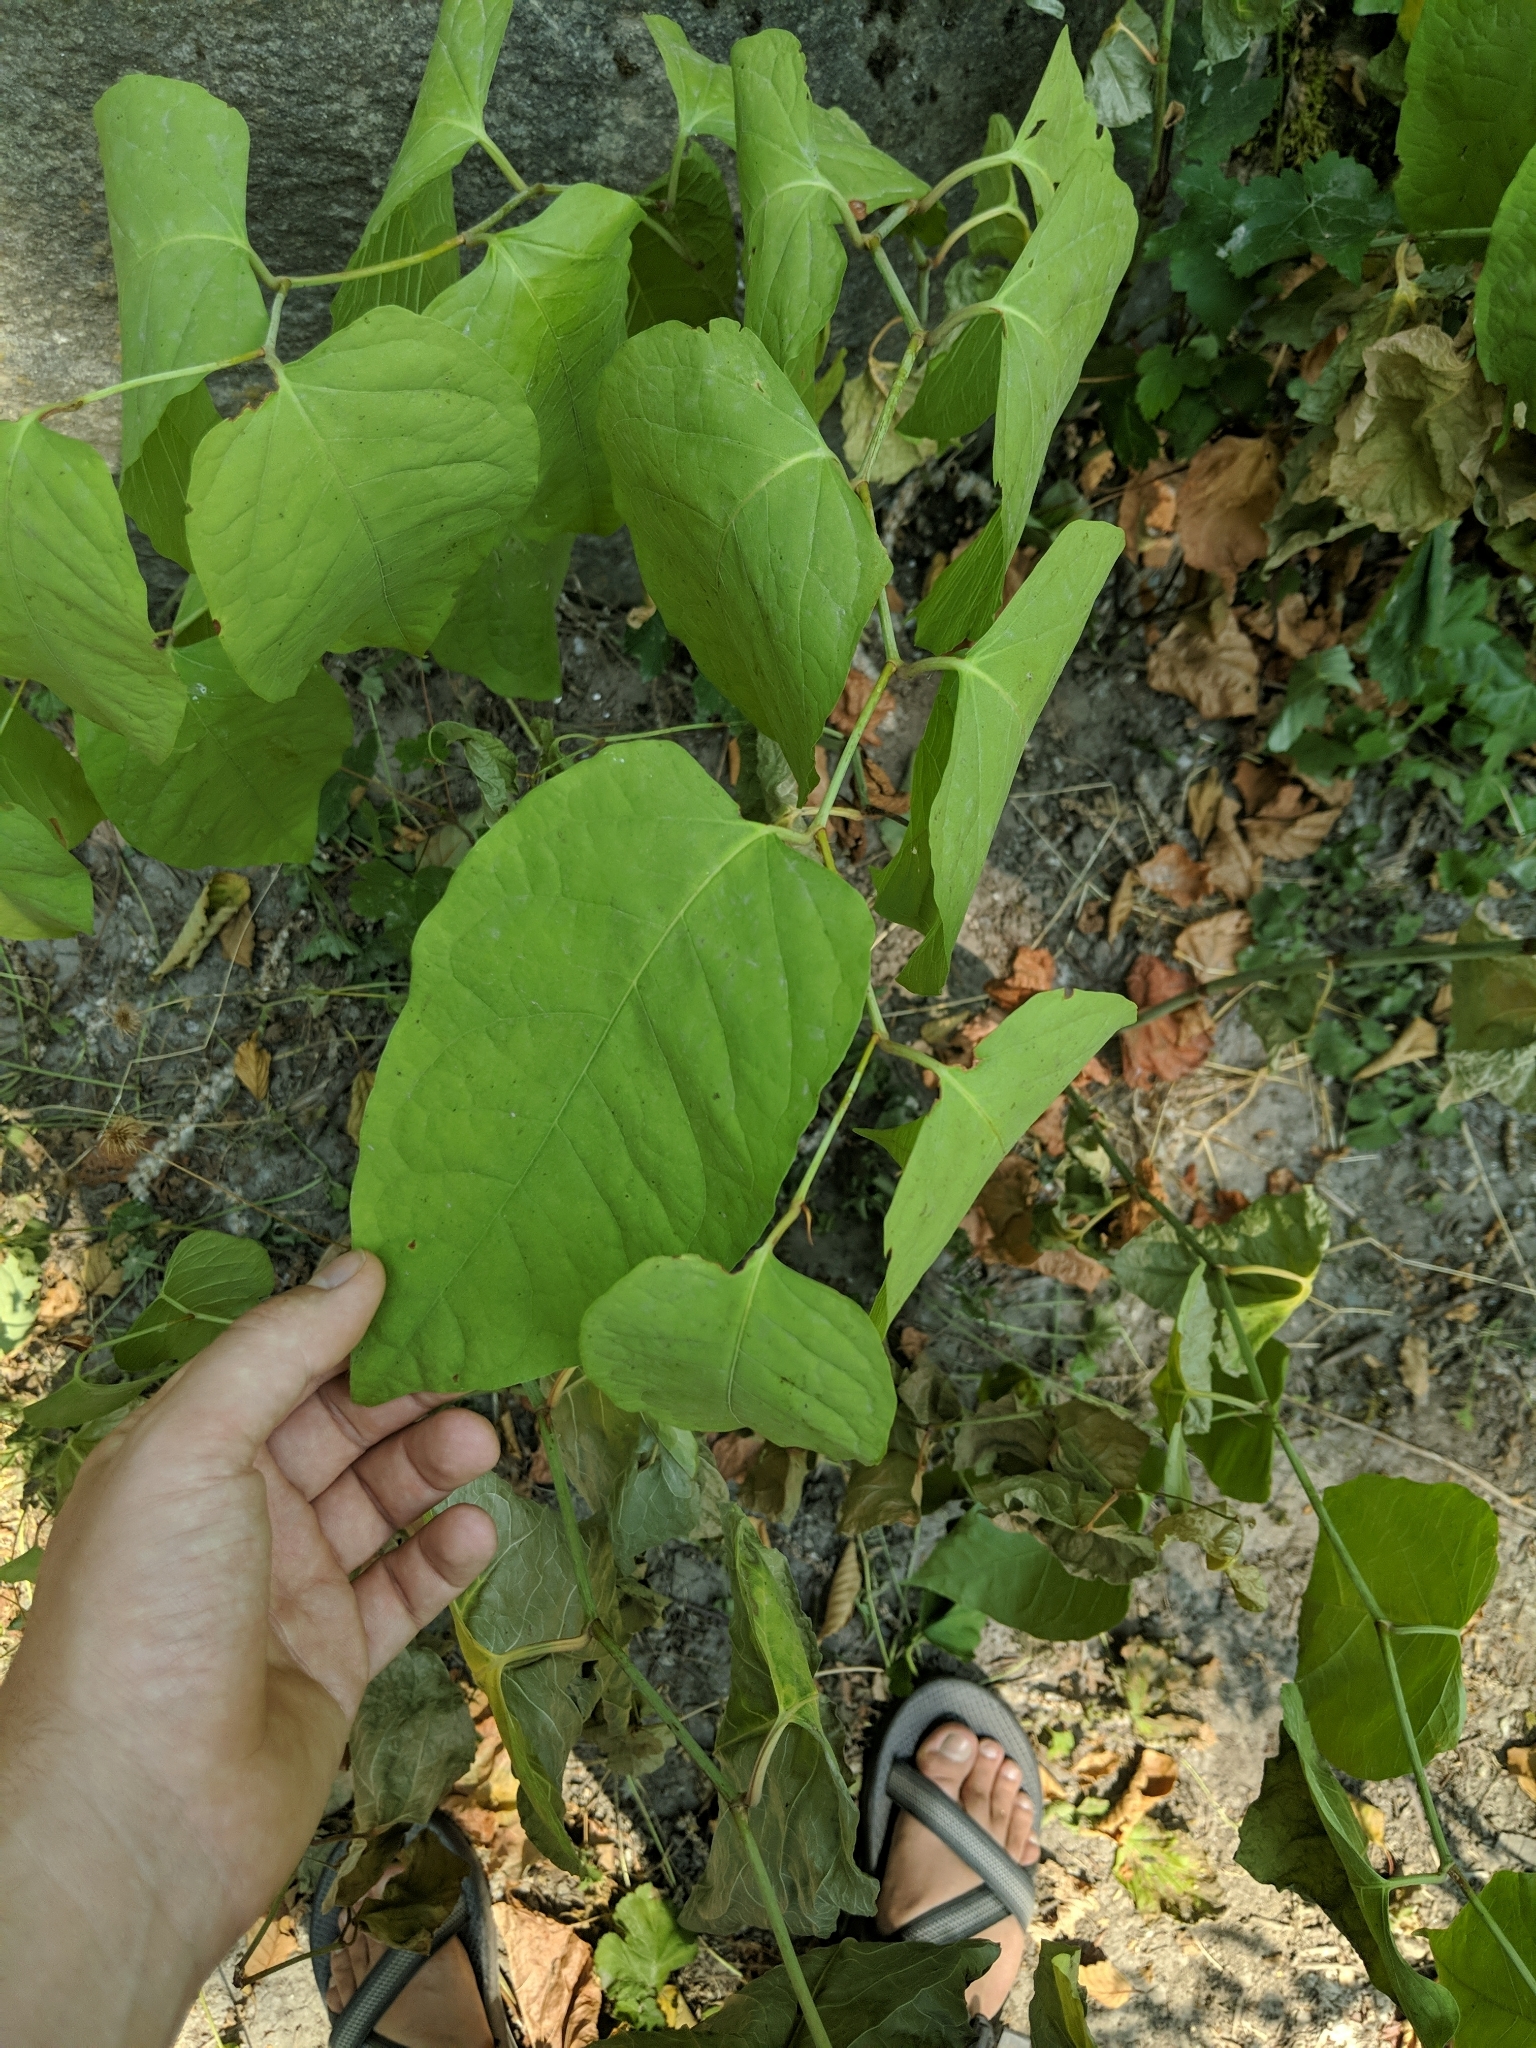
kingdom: Plantae
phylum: Tracheophyta
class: Magnoliopsida
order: Caryophyllales
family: Polygonaceae
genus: Reynoutria
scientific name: Reynoutria japonica
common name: Japanese knotweed
